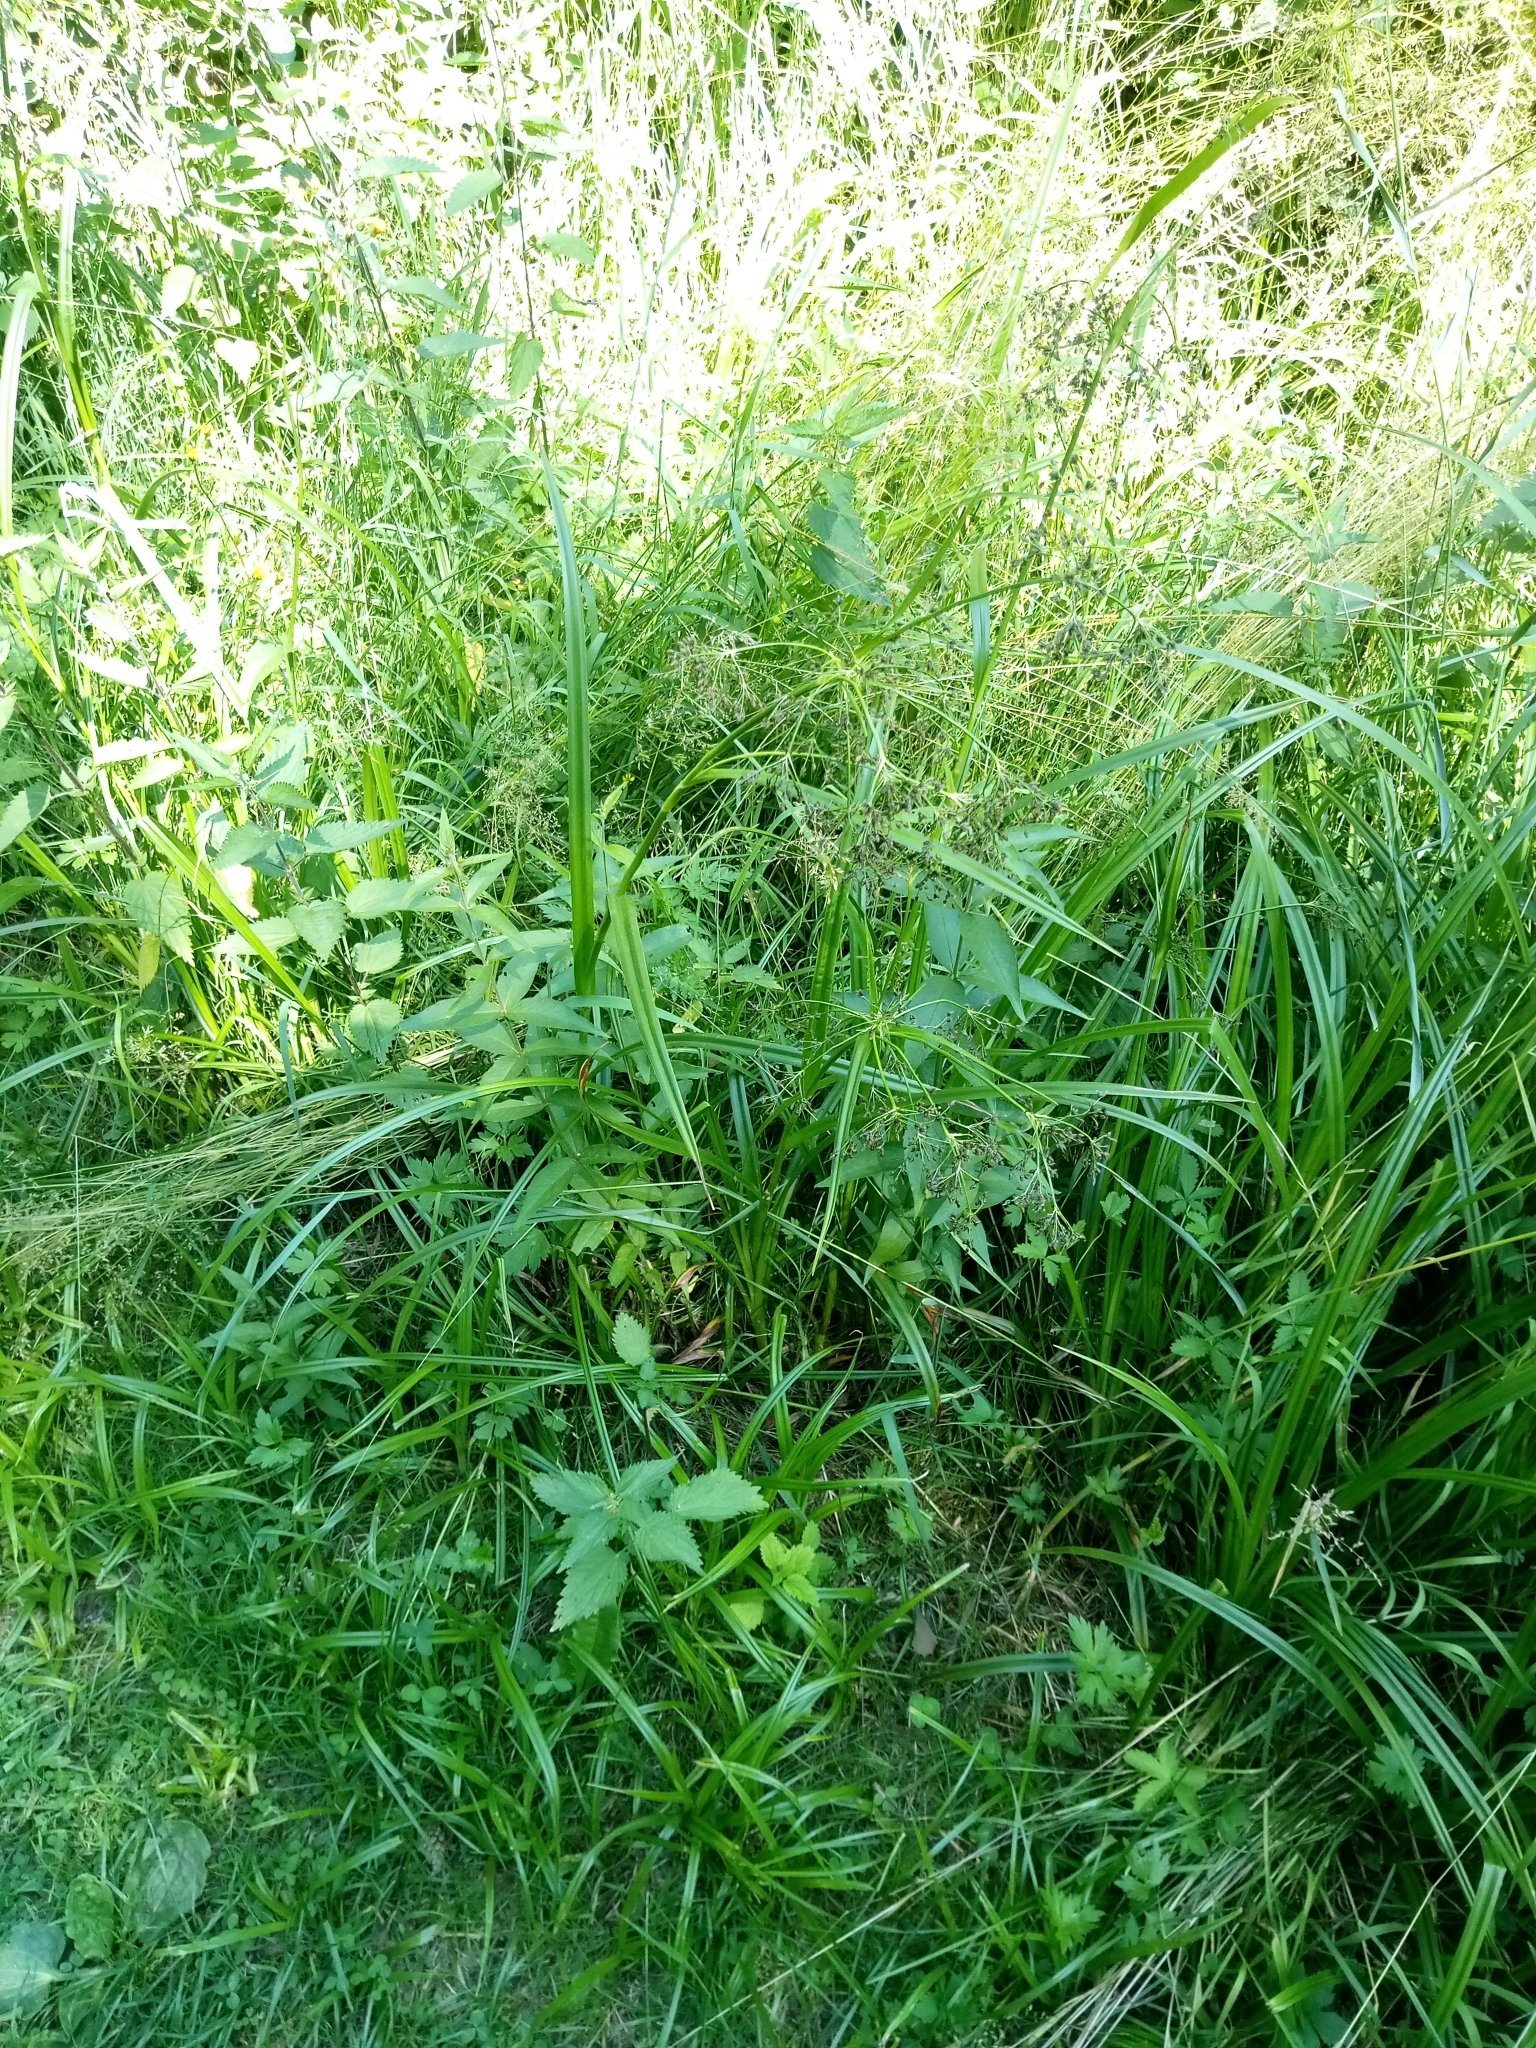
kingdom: Plantae
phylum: Tracheophyta
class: Liliopsida
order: Poales
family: Cyperaceae
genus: Scirpus
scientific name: Scirpus sylvaticus
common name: Wood club-rush
